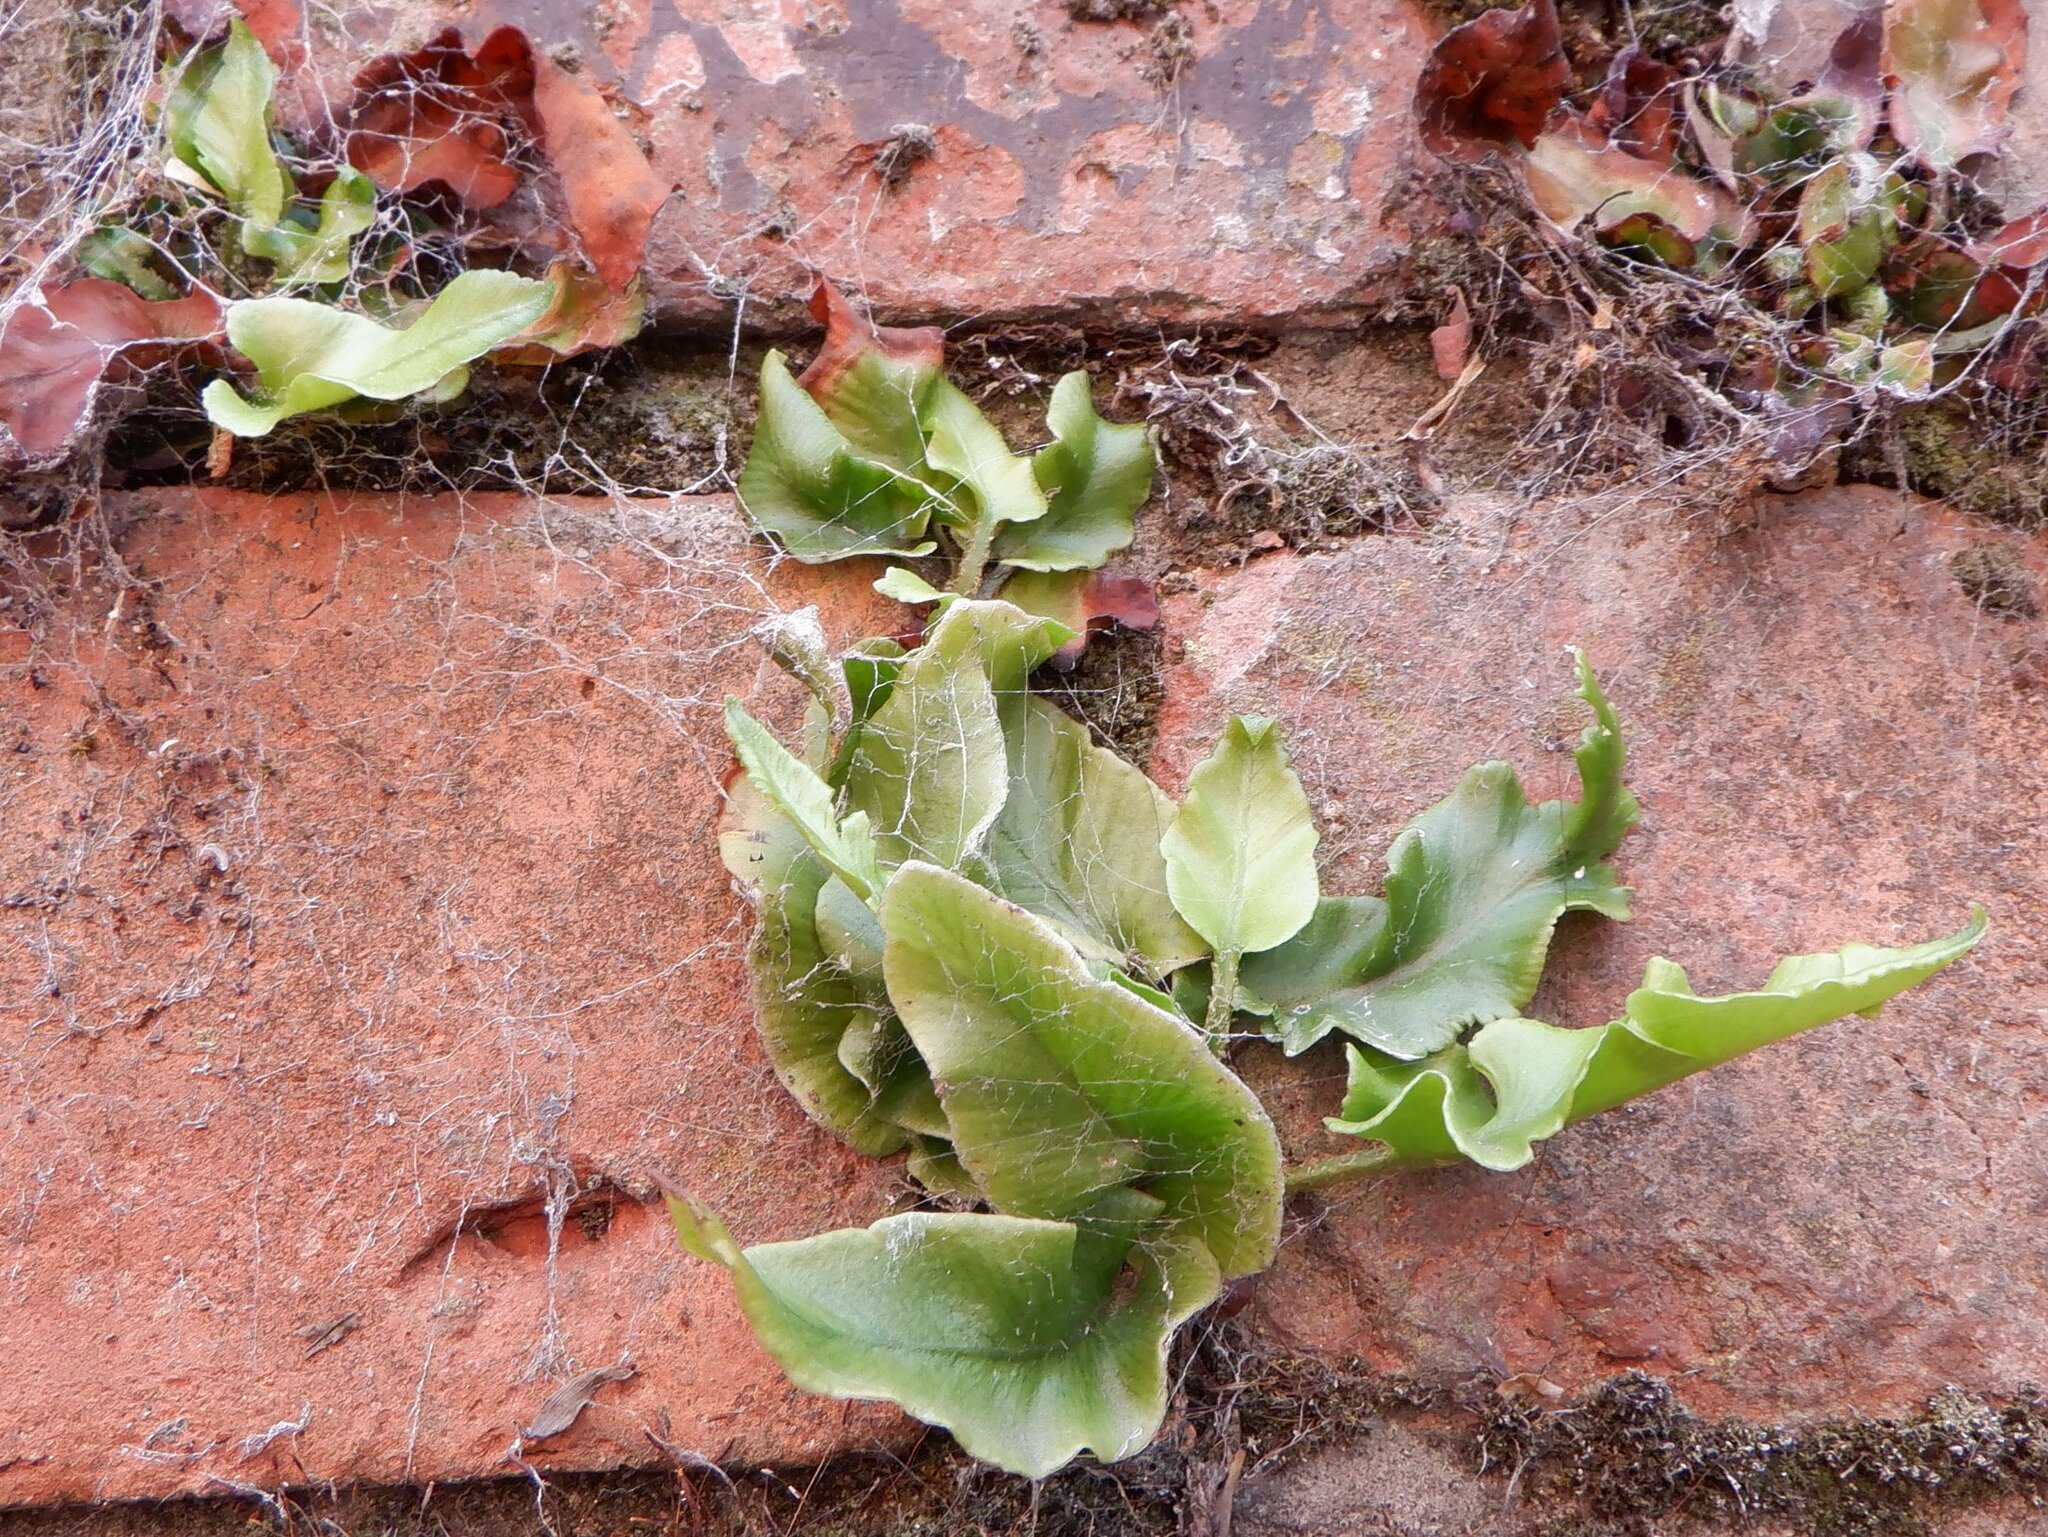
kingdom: Plantae
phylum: Tracheophyta
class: Polypodiopsida
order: Polypodiales
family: Aspleniaceae
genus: Asplenium
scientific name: Asplenium scolopendrium
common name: Hart's-tongue fern
